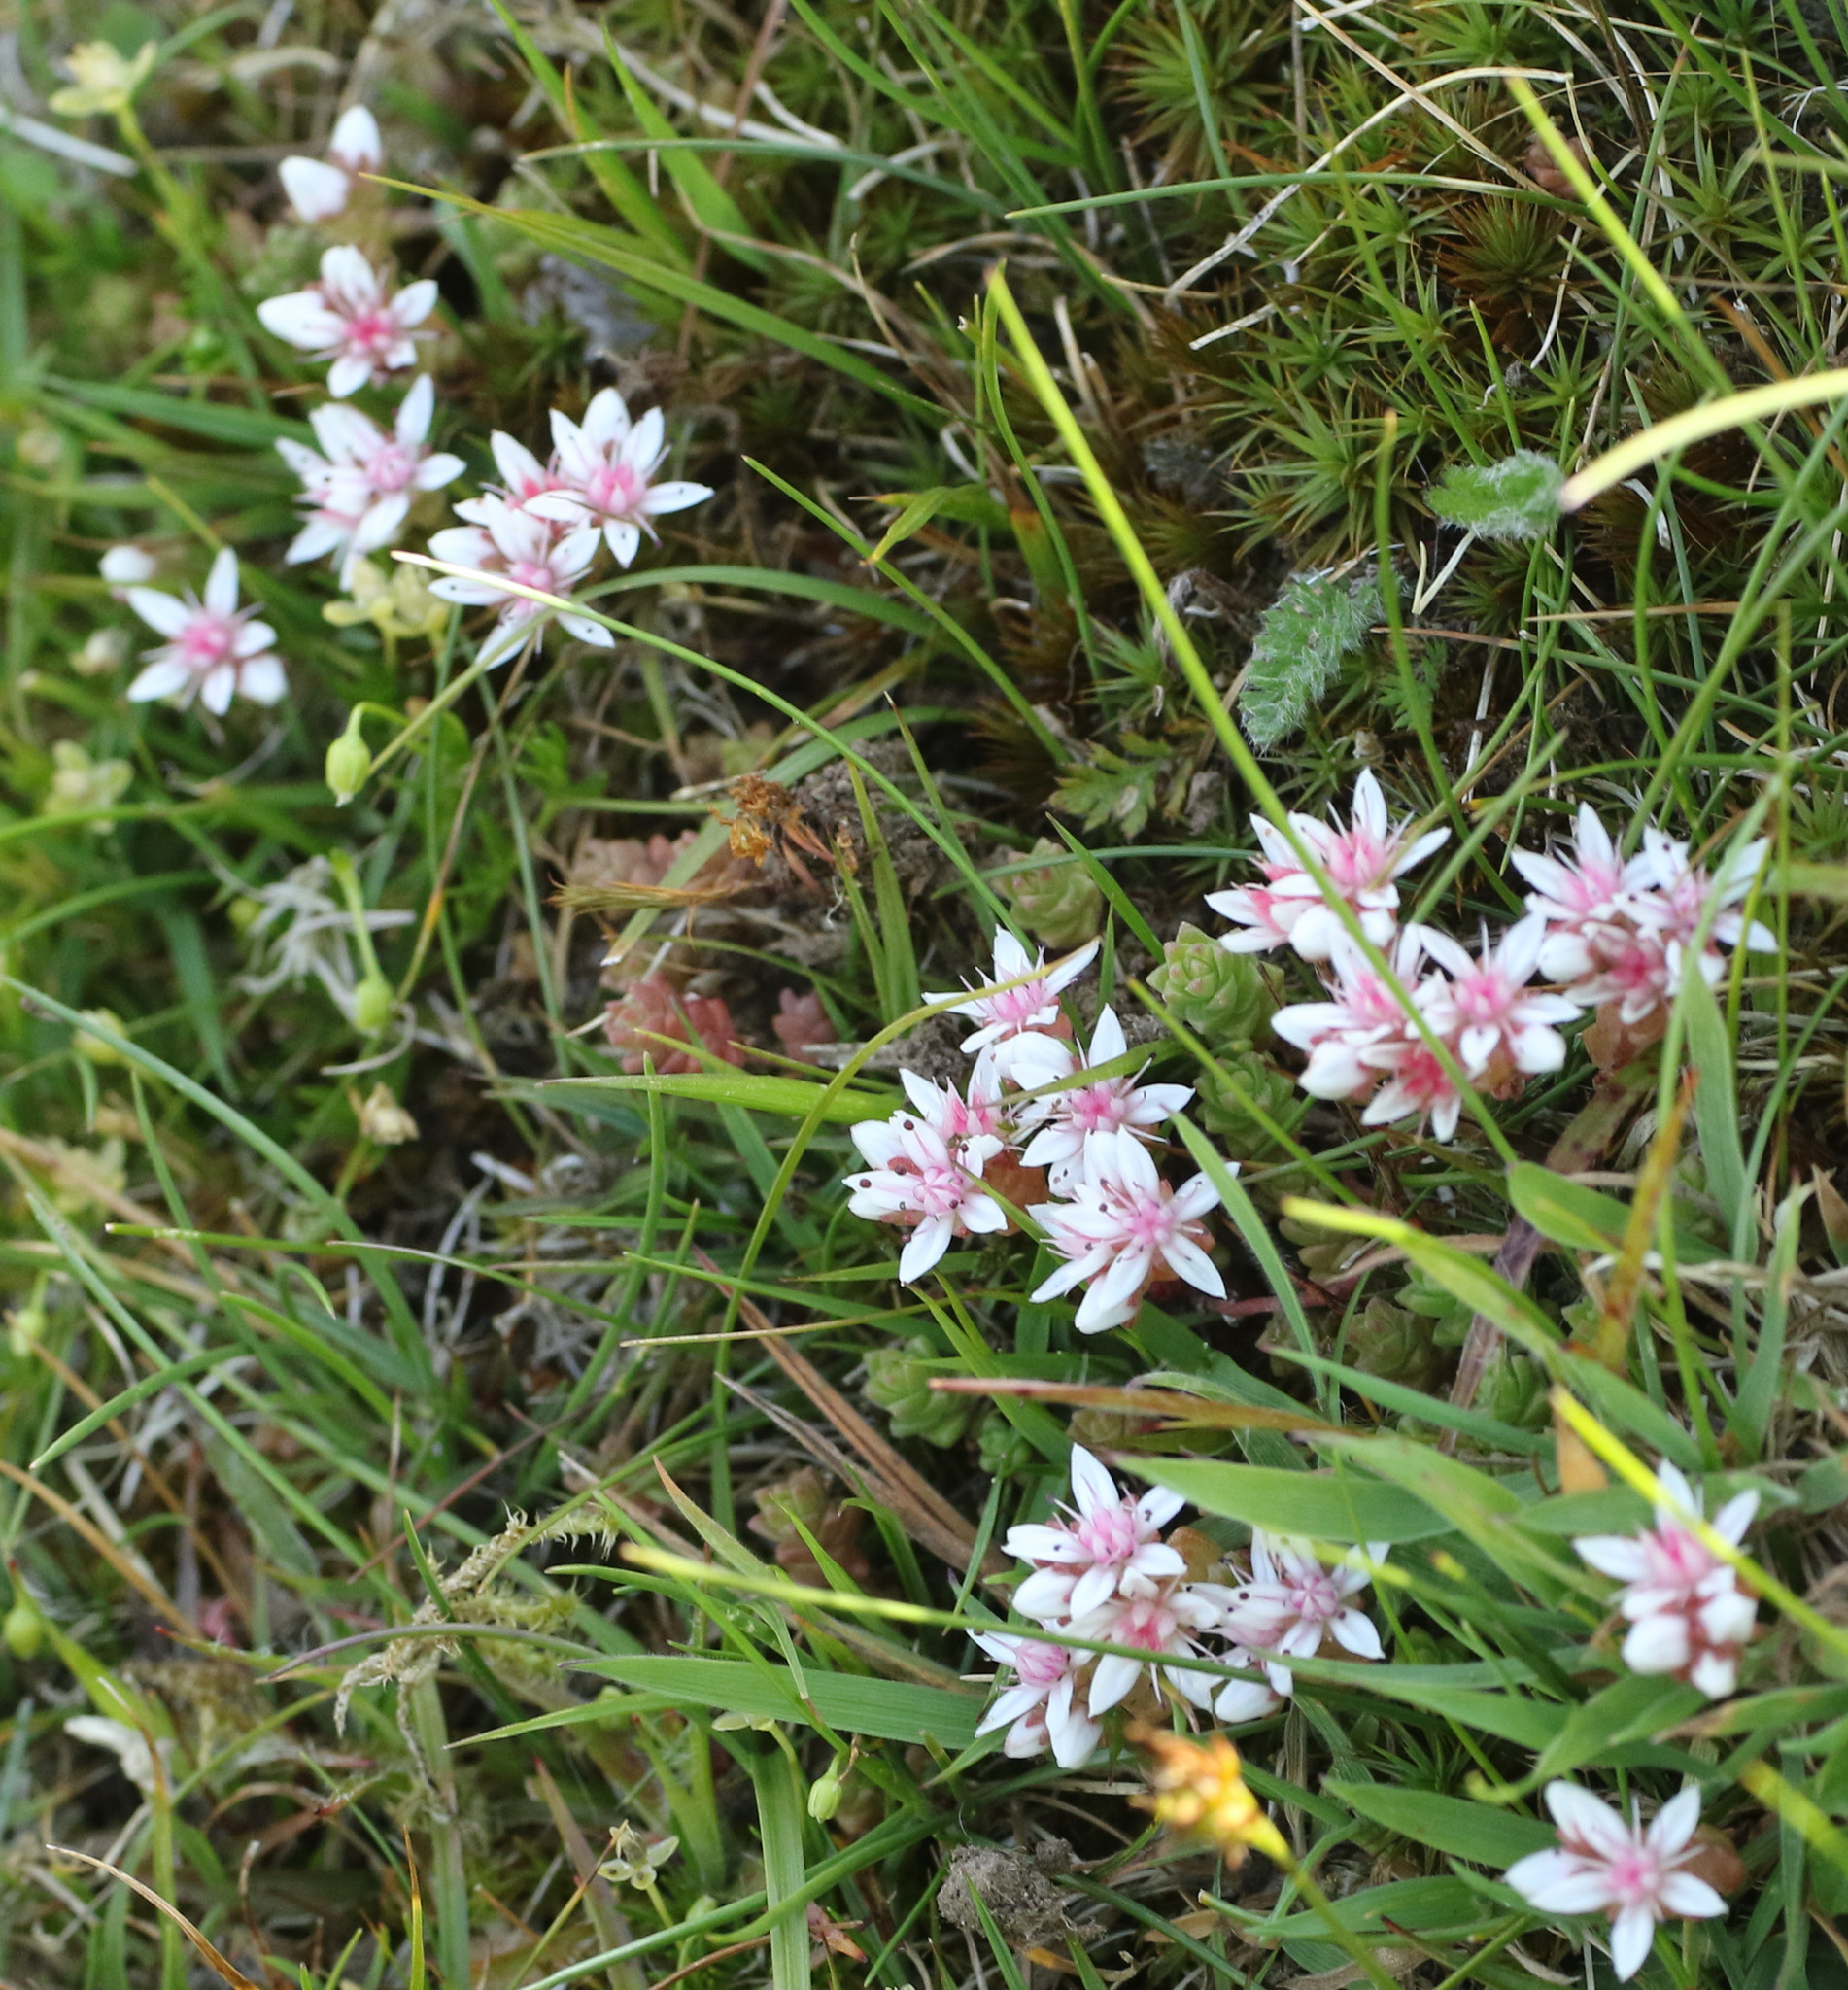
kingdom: Plantae
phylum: Tracheophyta
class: Magnoliopsida
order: Saxifragales
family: Crassulaceae
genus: Sedum
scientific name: Sedum anglicum
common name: English stonecrop
